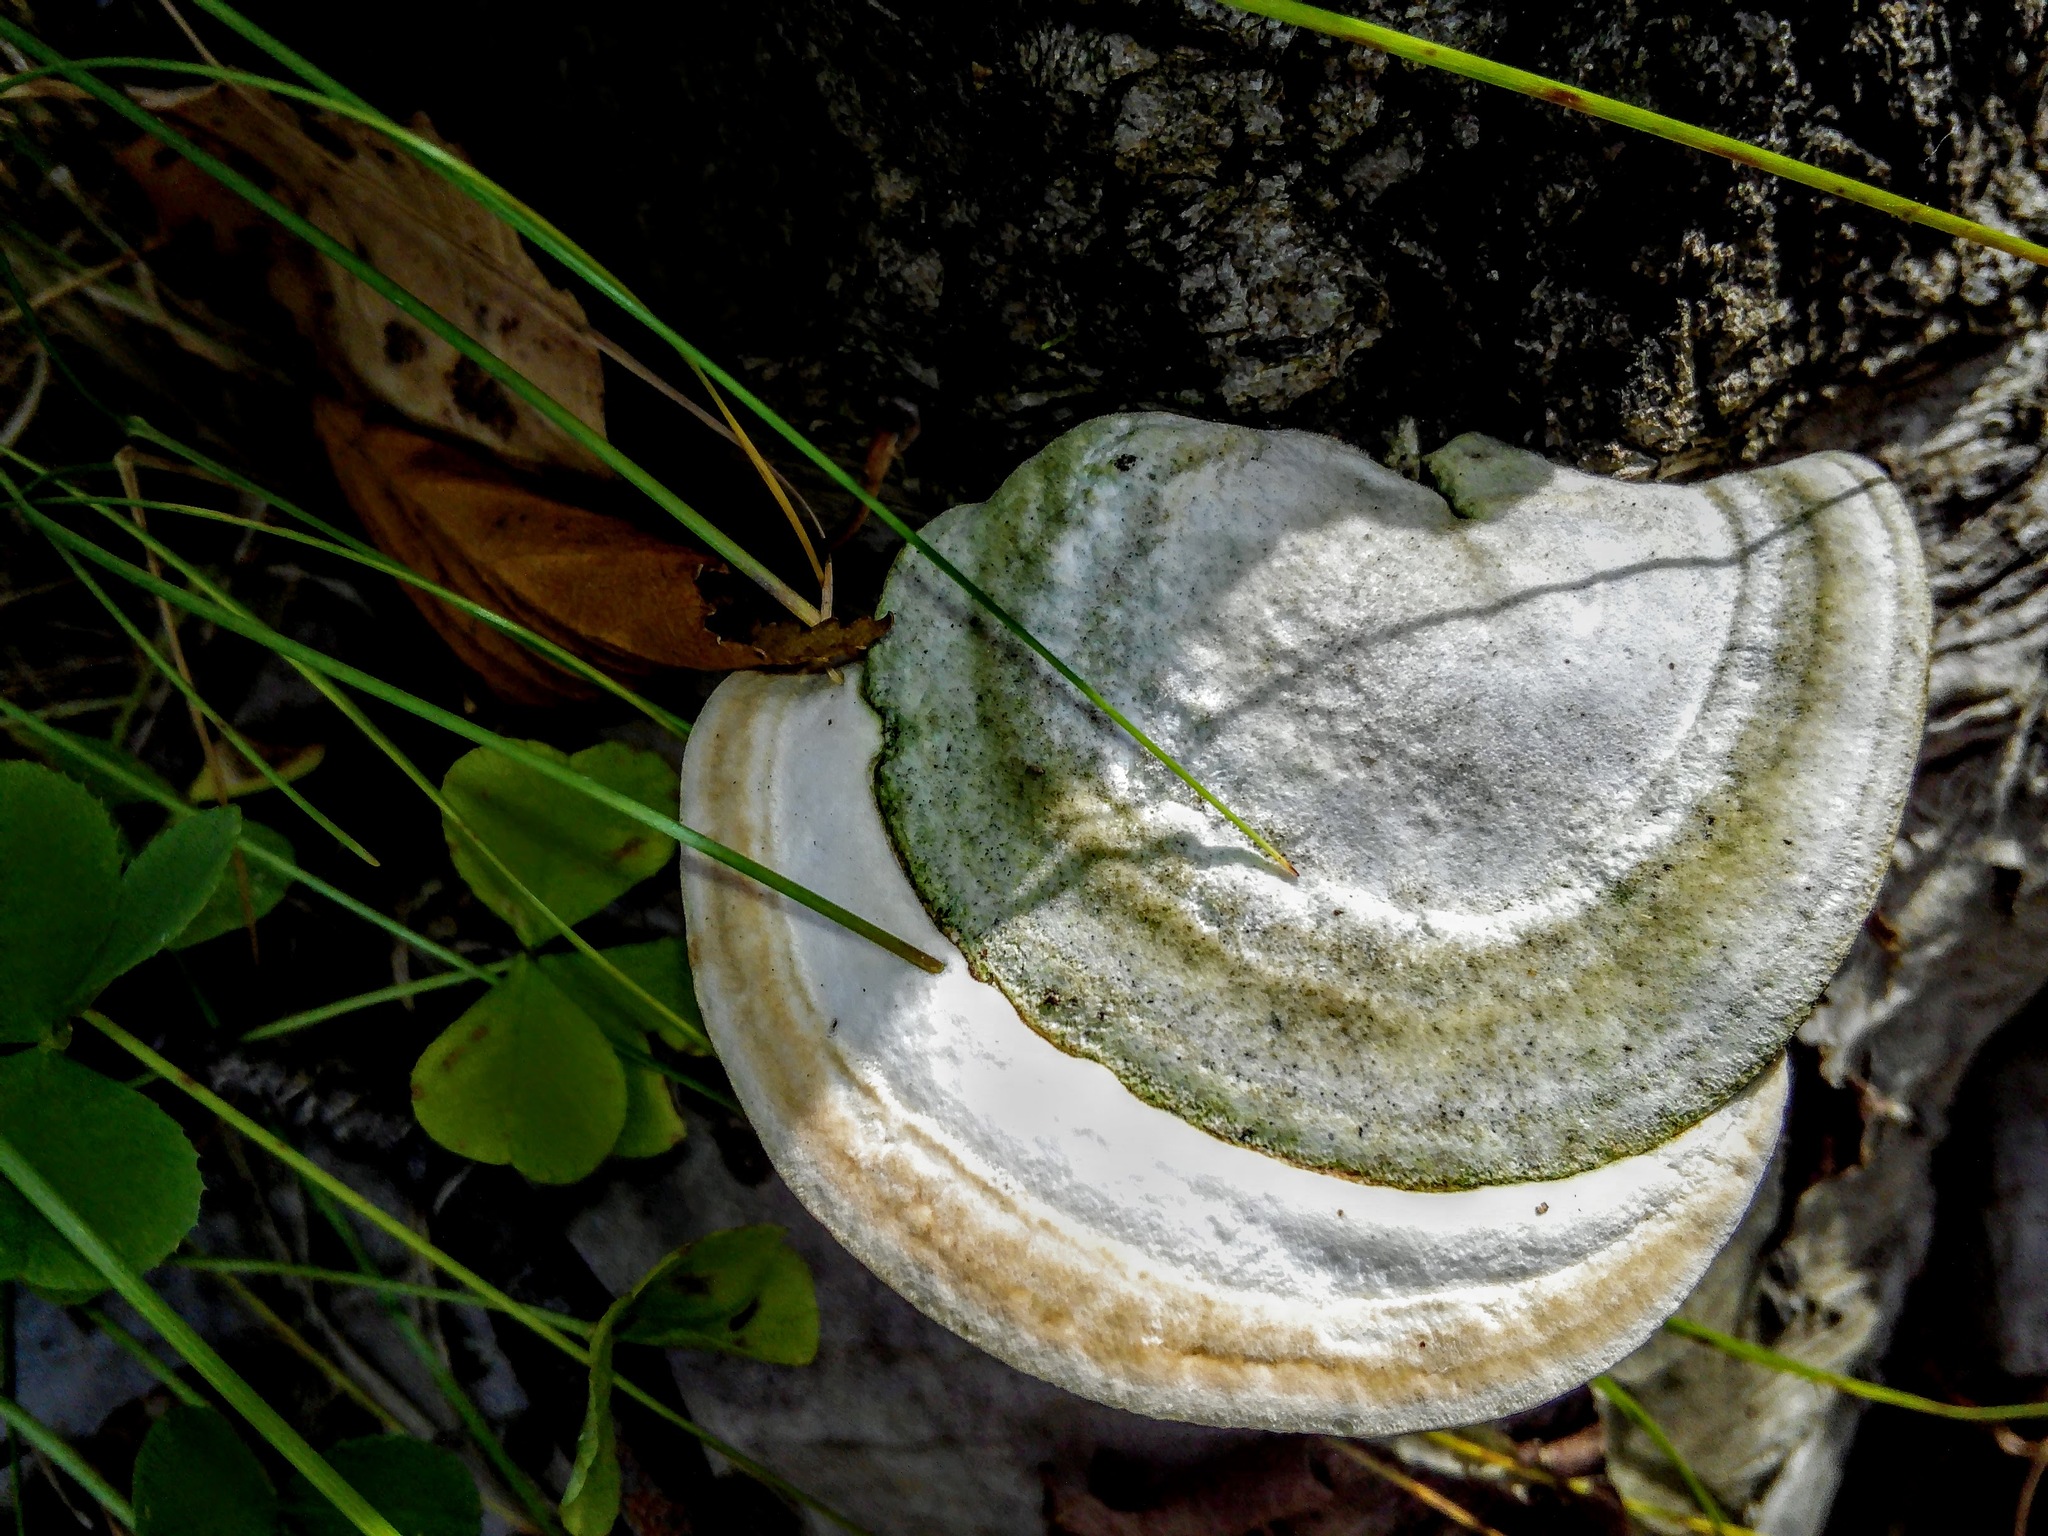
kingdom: Fungi
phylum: Basidiomycota
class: Agaricomycetes
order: Polyporales
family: Polyporaceae
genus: Trametes
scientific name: Trametes gibbosa
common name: Lumpy bracket
